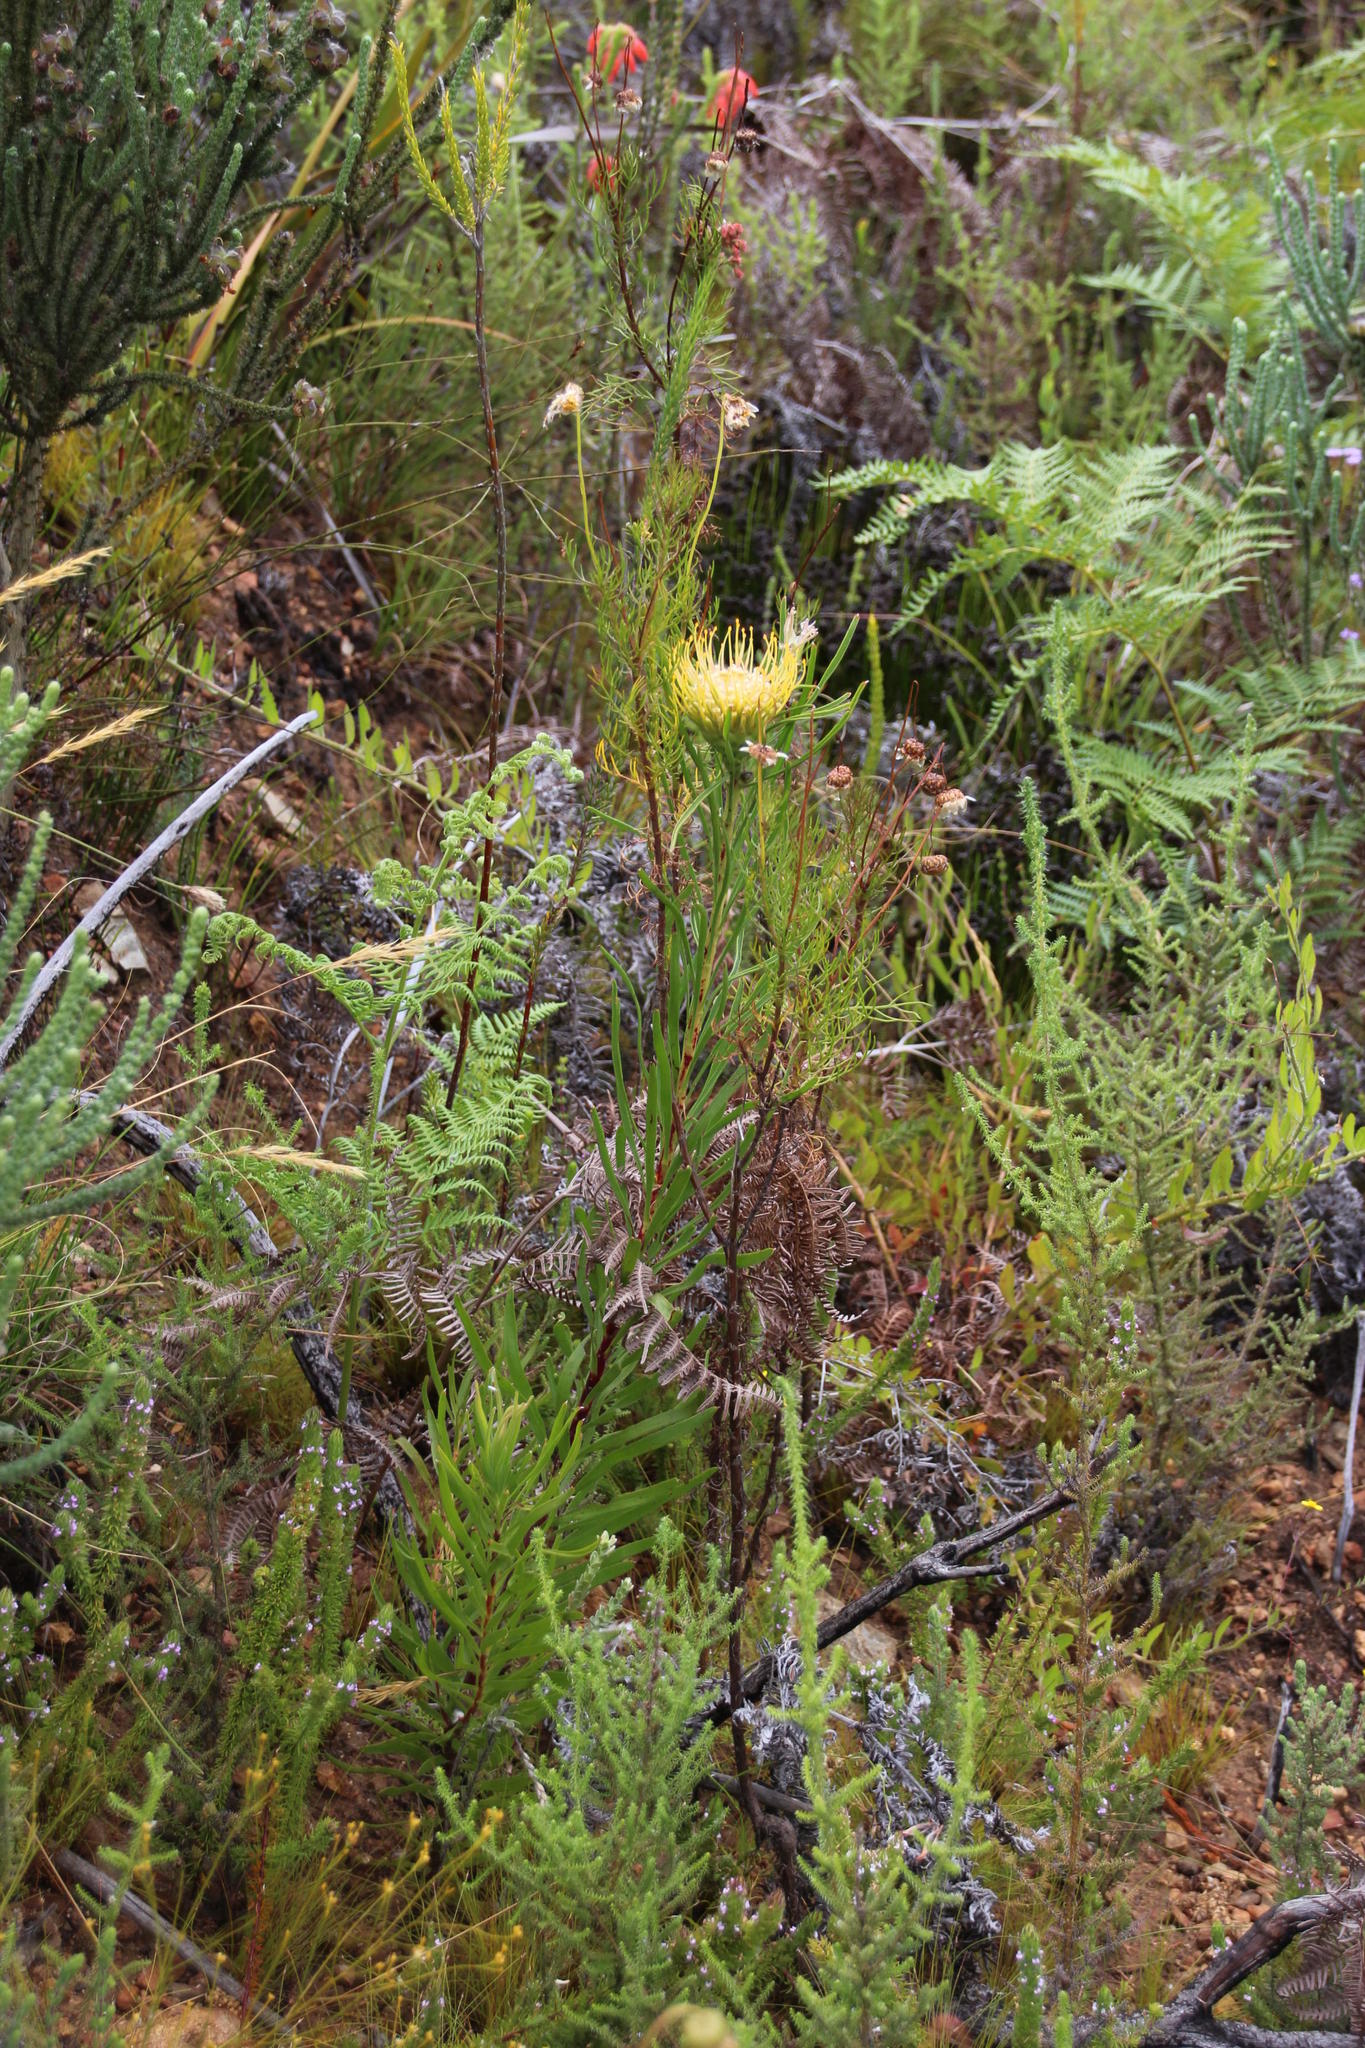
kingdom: Plantae
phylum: Tracheophyta
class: Magnoliopsida
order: Proteales
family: Proteaceae
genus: Leucospermum
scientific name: Leucospermum lineare
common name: Needle-leaf pincushion
